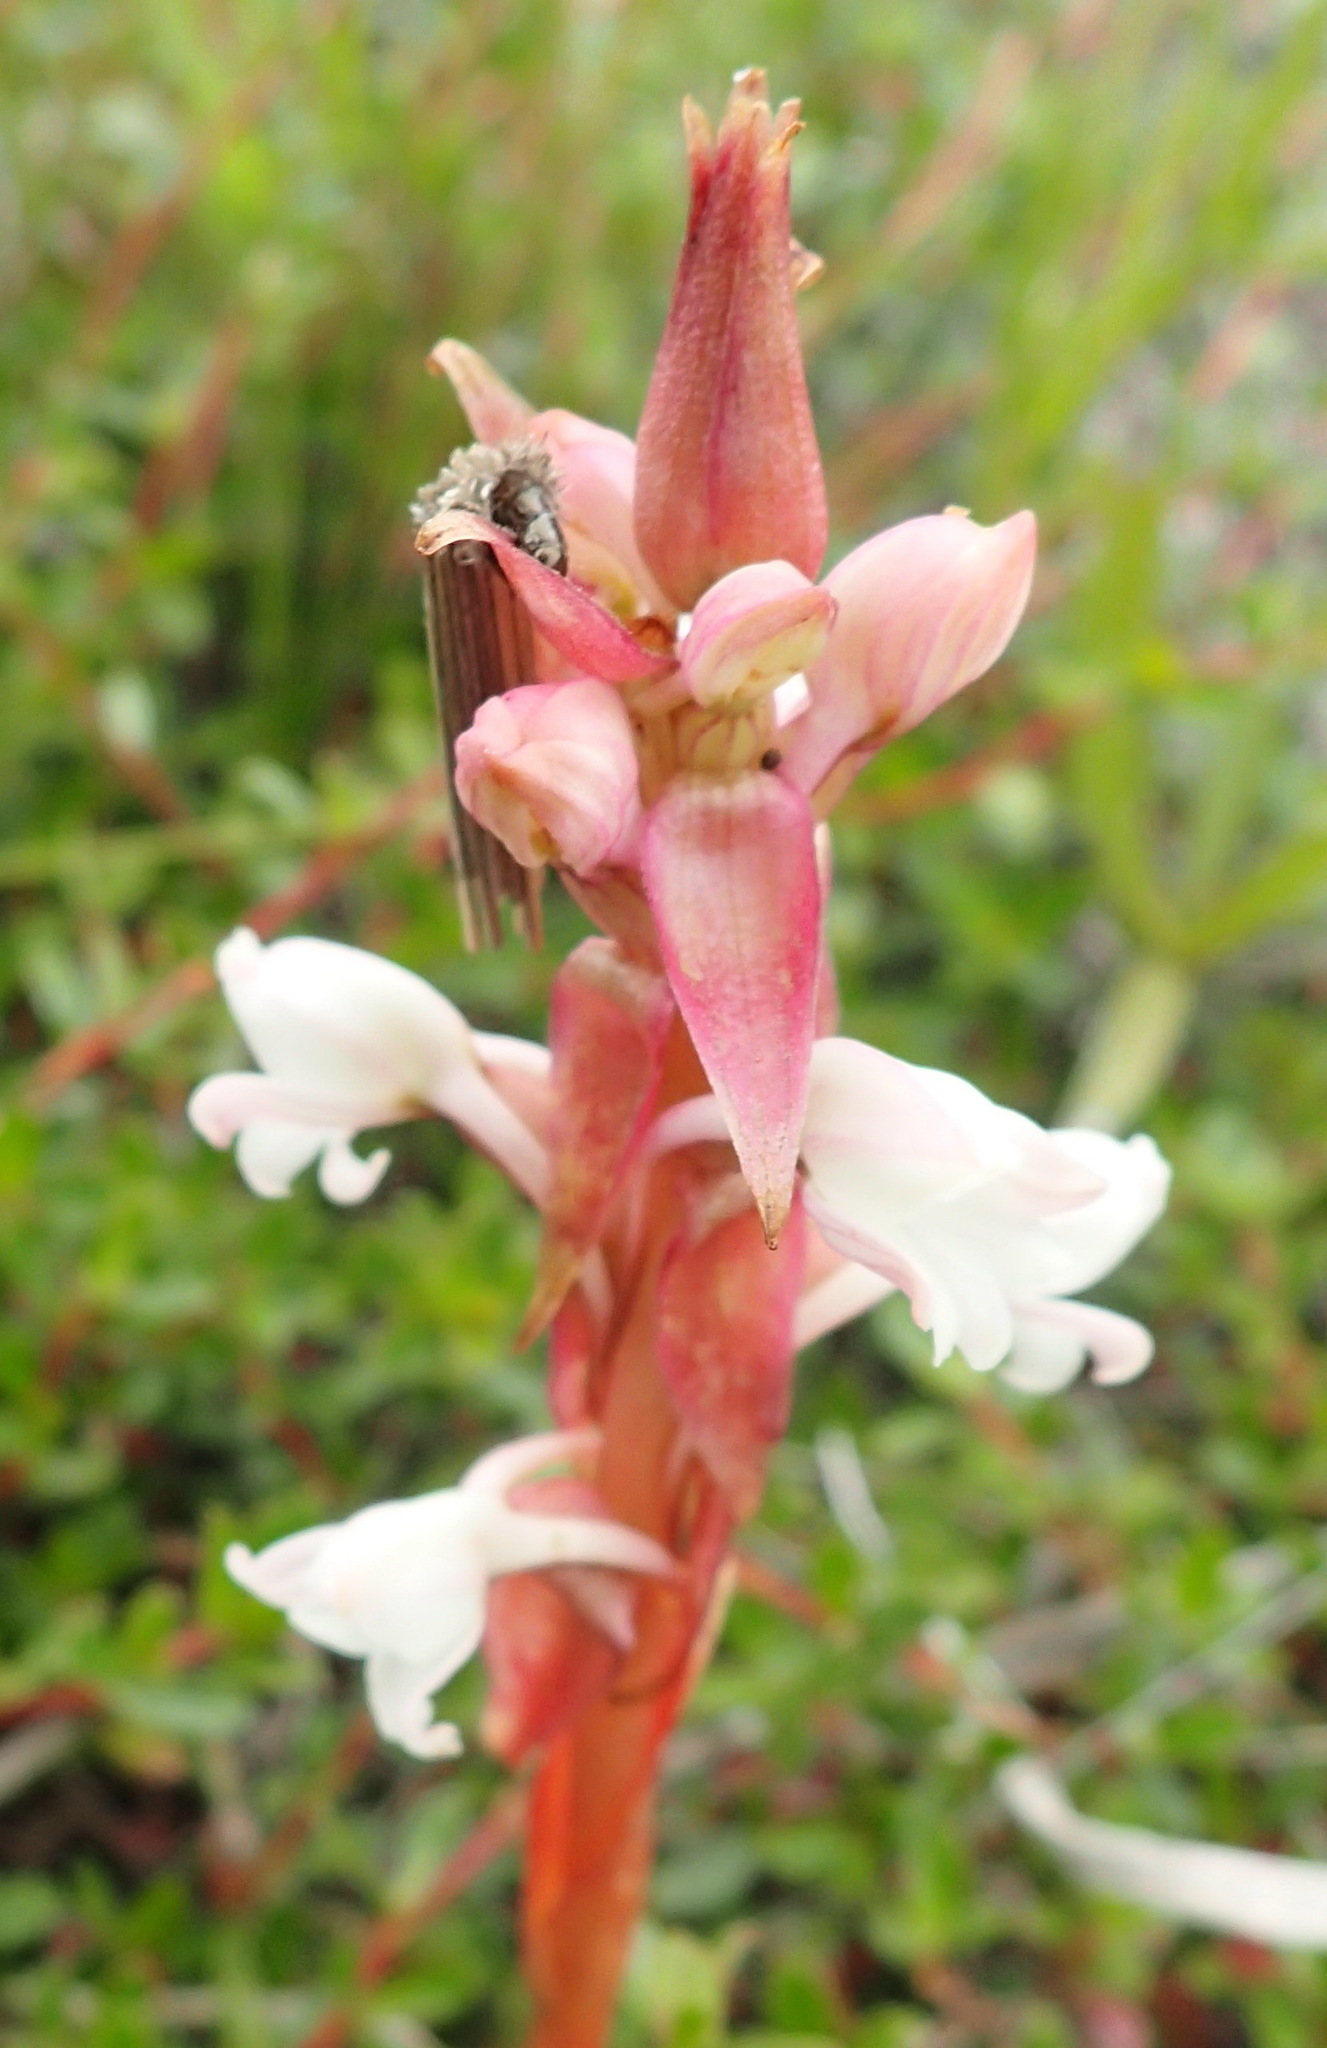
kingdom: Plantae
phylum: Tracheophyta
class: Liliopsida
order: Asparagales
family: Orchidaceae
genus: Satyrium
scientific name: Satyrium acuminatum
